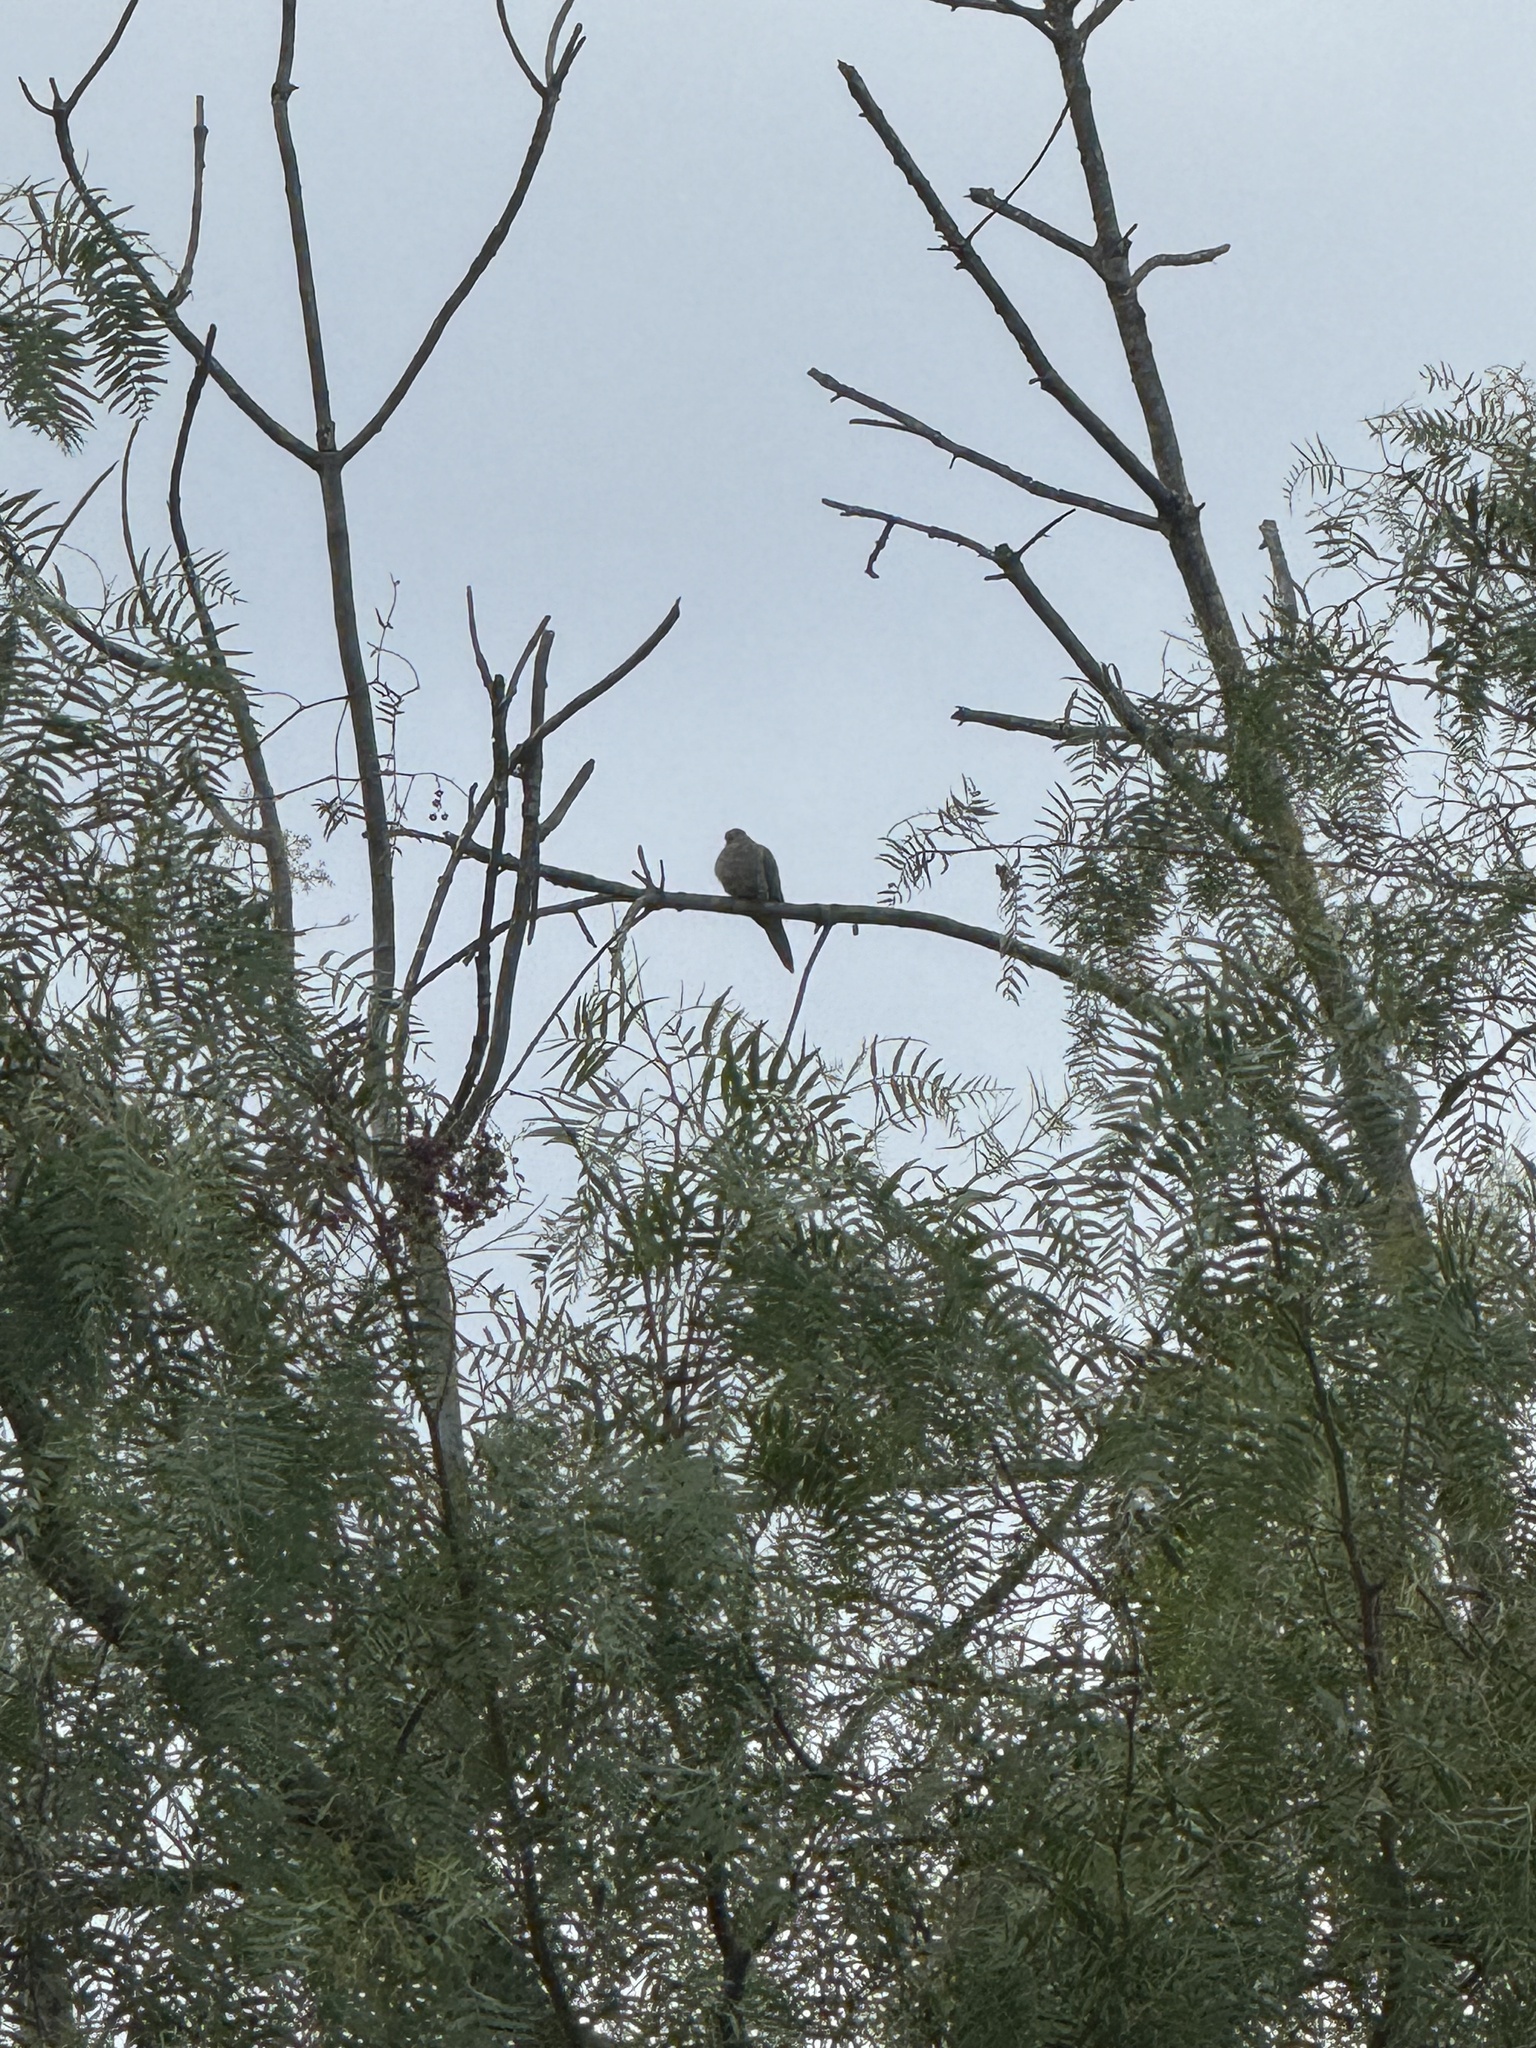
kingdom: Animalia
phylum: Chordata
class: Aves
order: Columbiformes
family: Columbidae
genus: Zenaida
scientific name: Zenaida macroura
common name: Mourning dove
